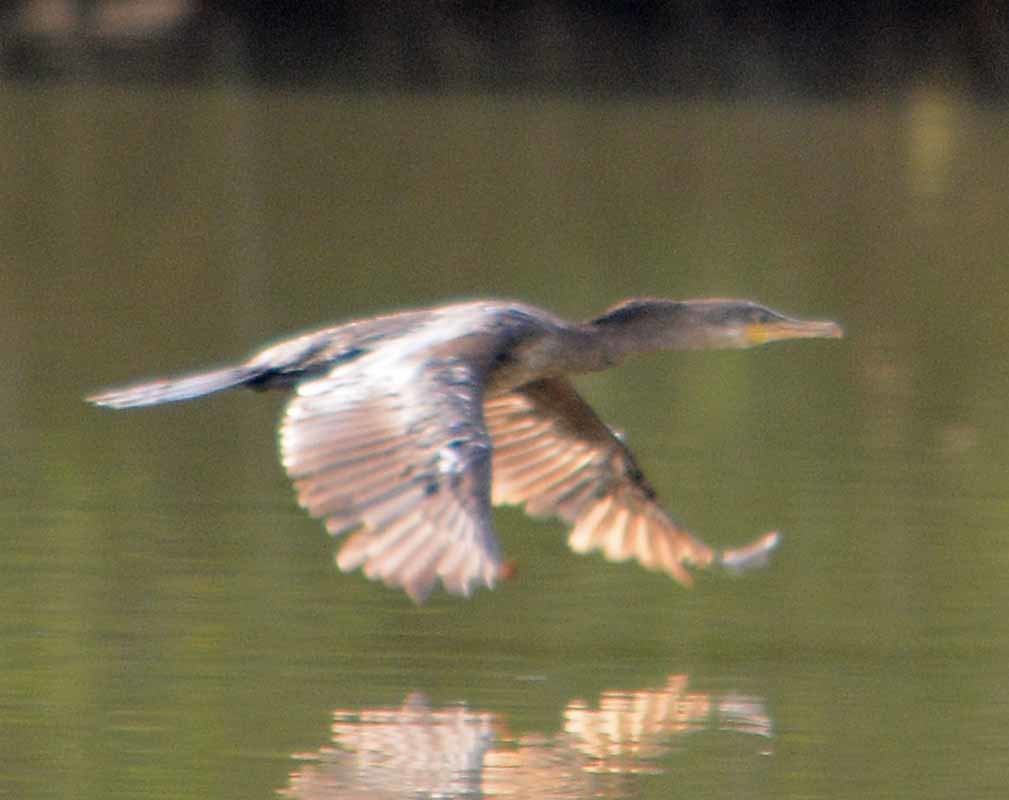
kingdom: Animalia
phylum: Chordata
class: Aves
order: Suliformes
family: Phalacrocoracidae
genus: Phalacrocorax
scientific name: Phalacrocorax brasilianus
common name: Neotropic cormorant
